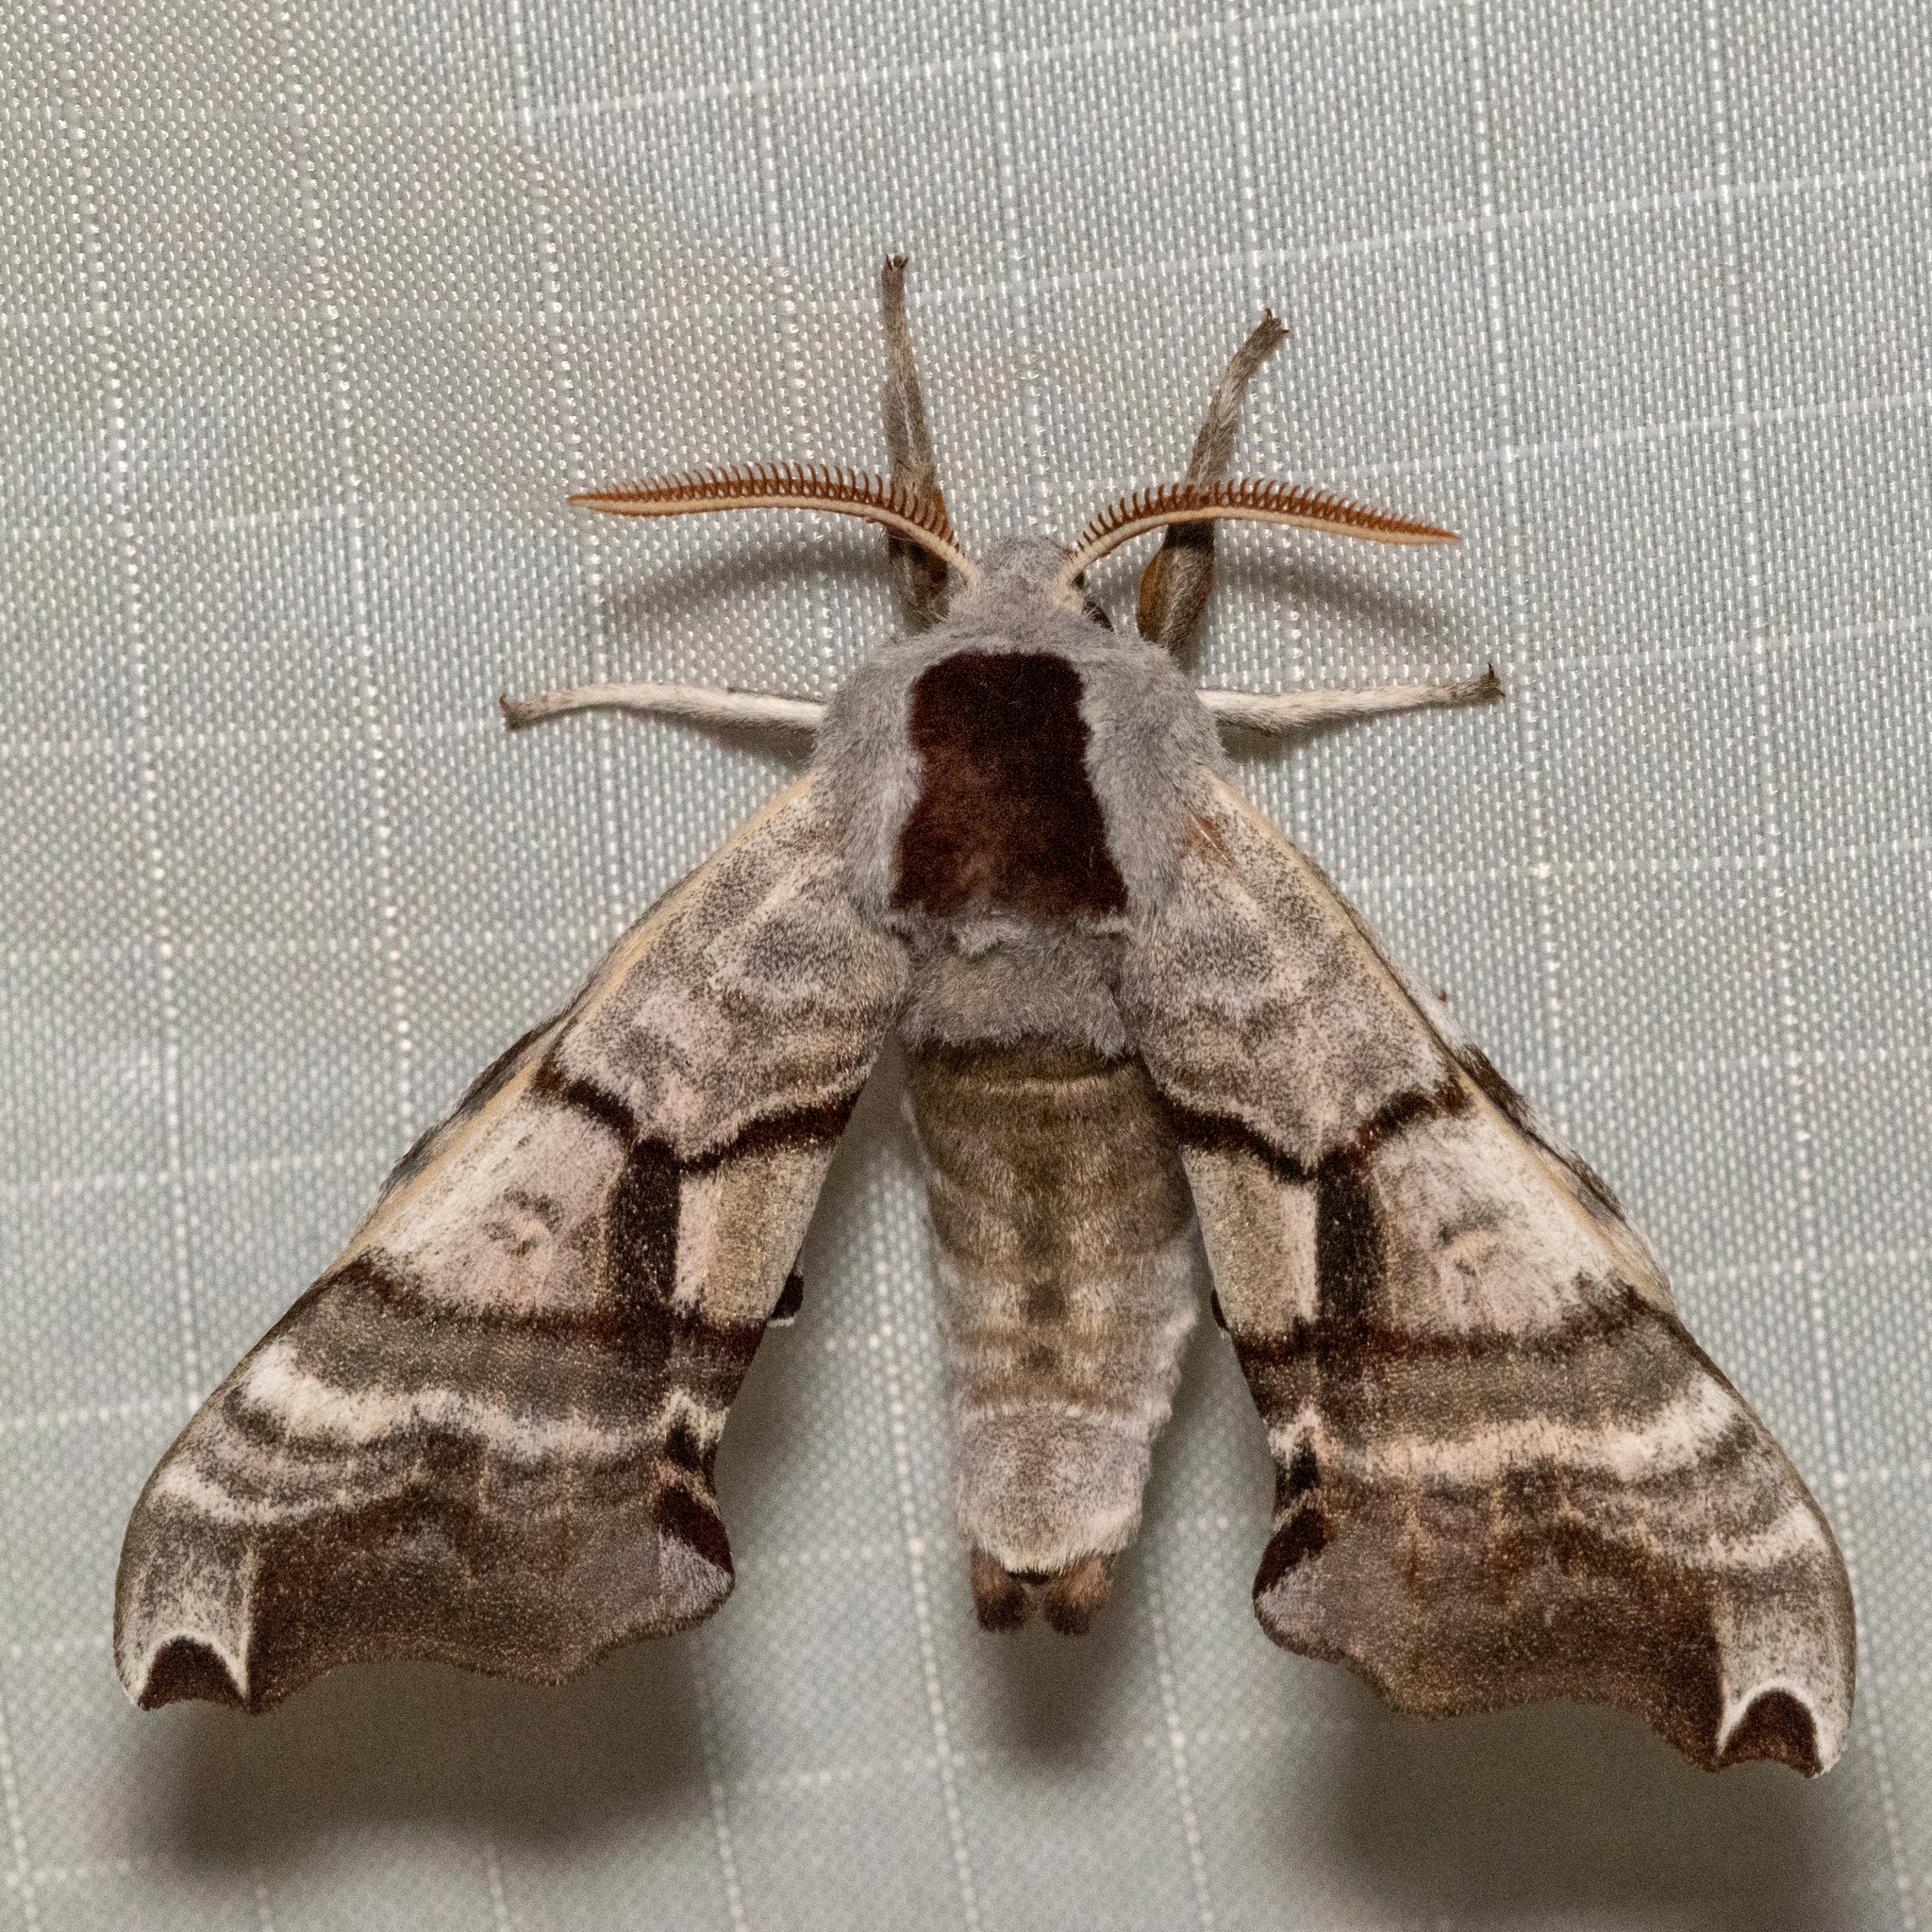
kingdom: Animalia
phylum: Arthropoda
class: Insecta
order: Lepidoptera
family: Sphingidae
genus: Smerinthus
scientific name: Smerinthus jamaicensis
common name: Twin spotted sphinx
